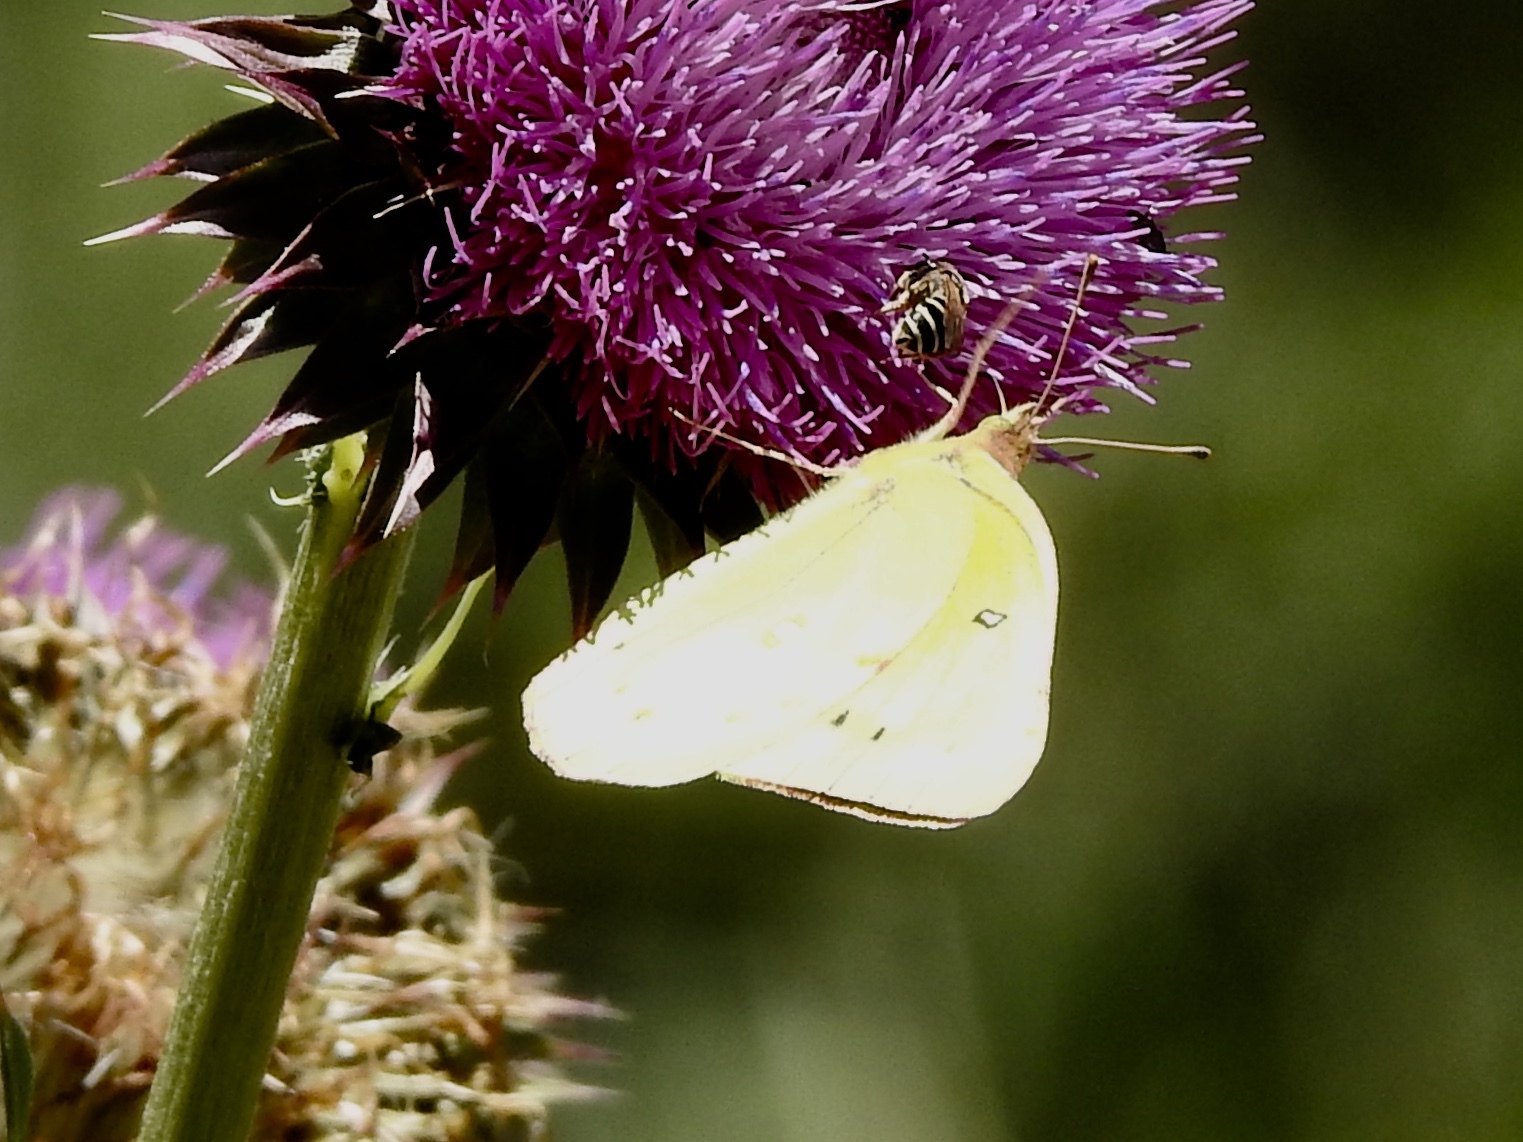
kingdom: Animalia
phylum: Arthropoda
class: Insecta
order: Lepidoptera
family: Pieridae
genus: Colias
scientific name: Colias eurytheme
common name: Alfalfa butterfly
